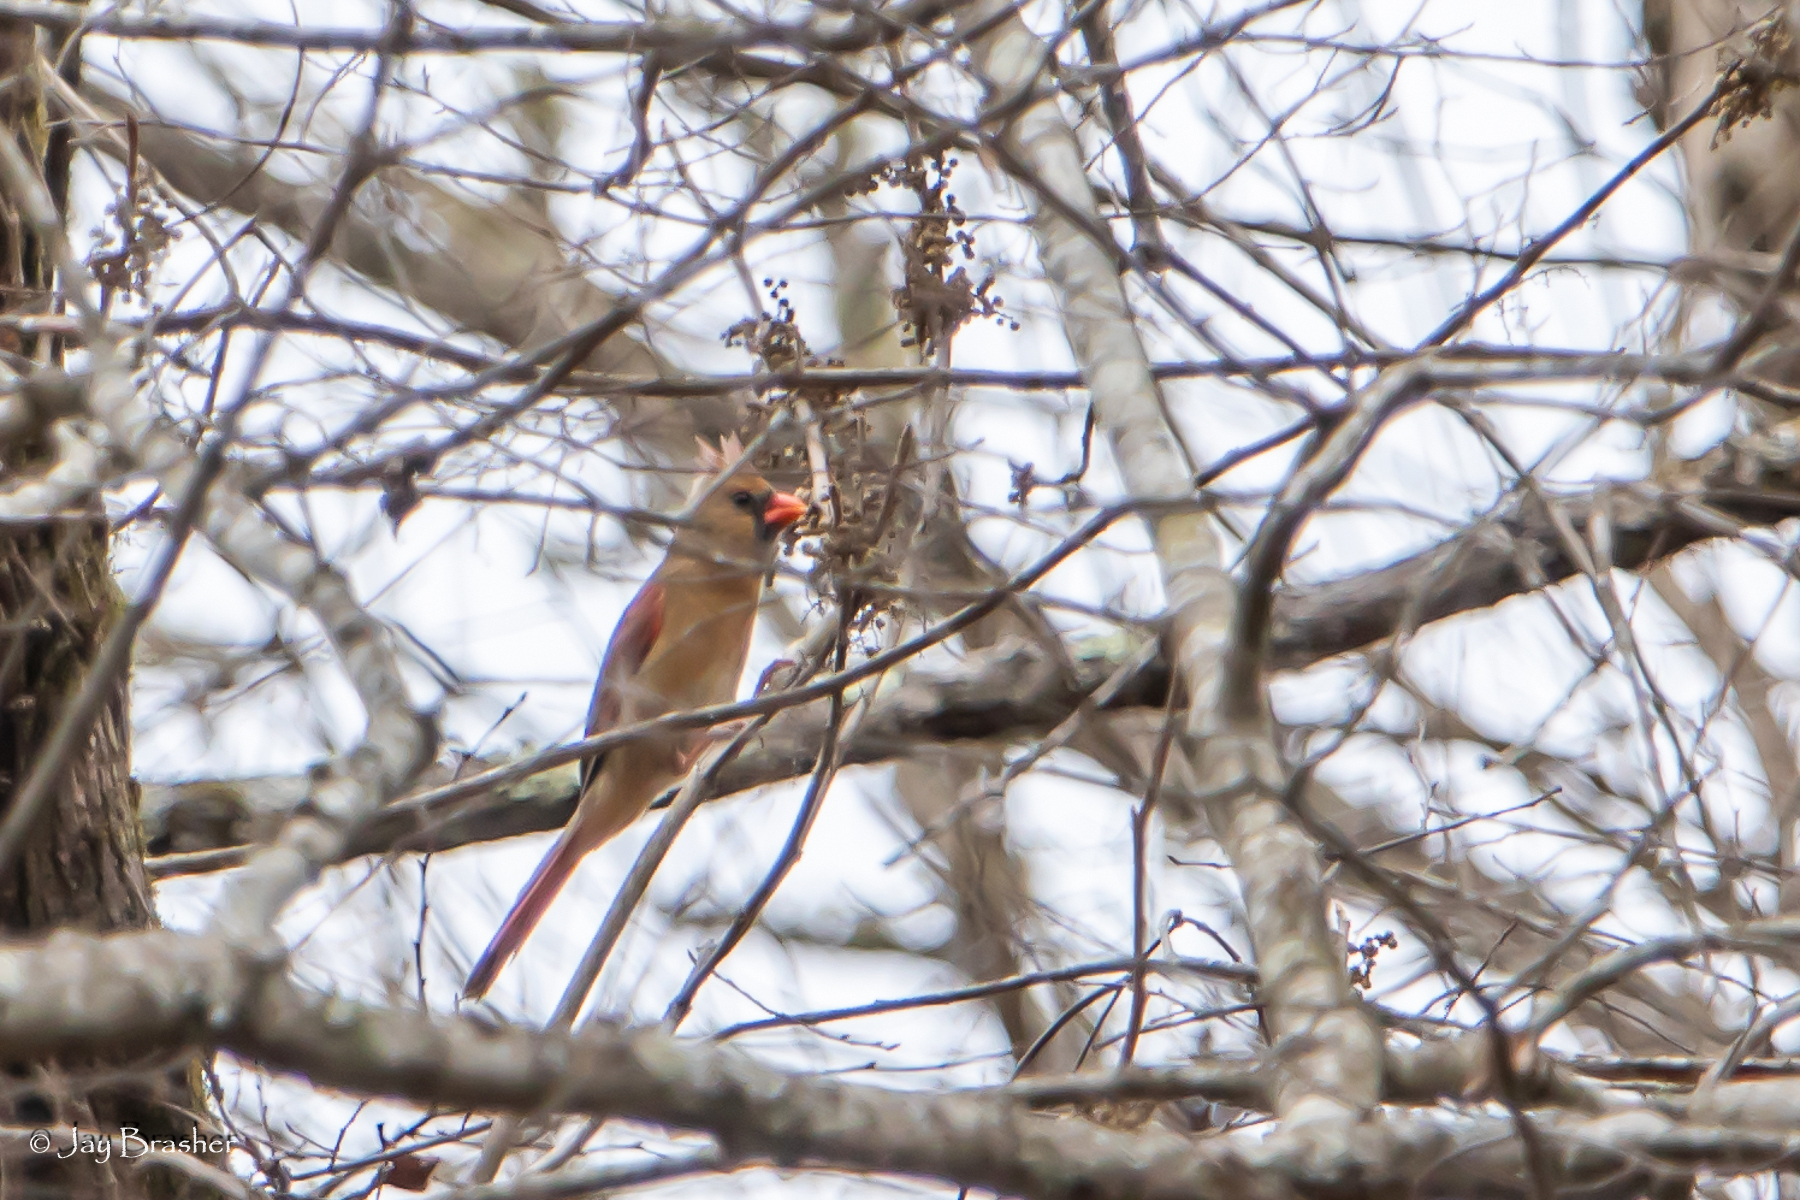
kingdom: Animalia
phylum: Chordata
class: Aves
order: Passeriformes
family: Cardinalidae
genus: Cardinalis
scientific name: Cardinalis cardinalis
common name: Northern cardinal
